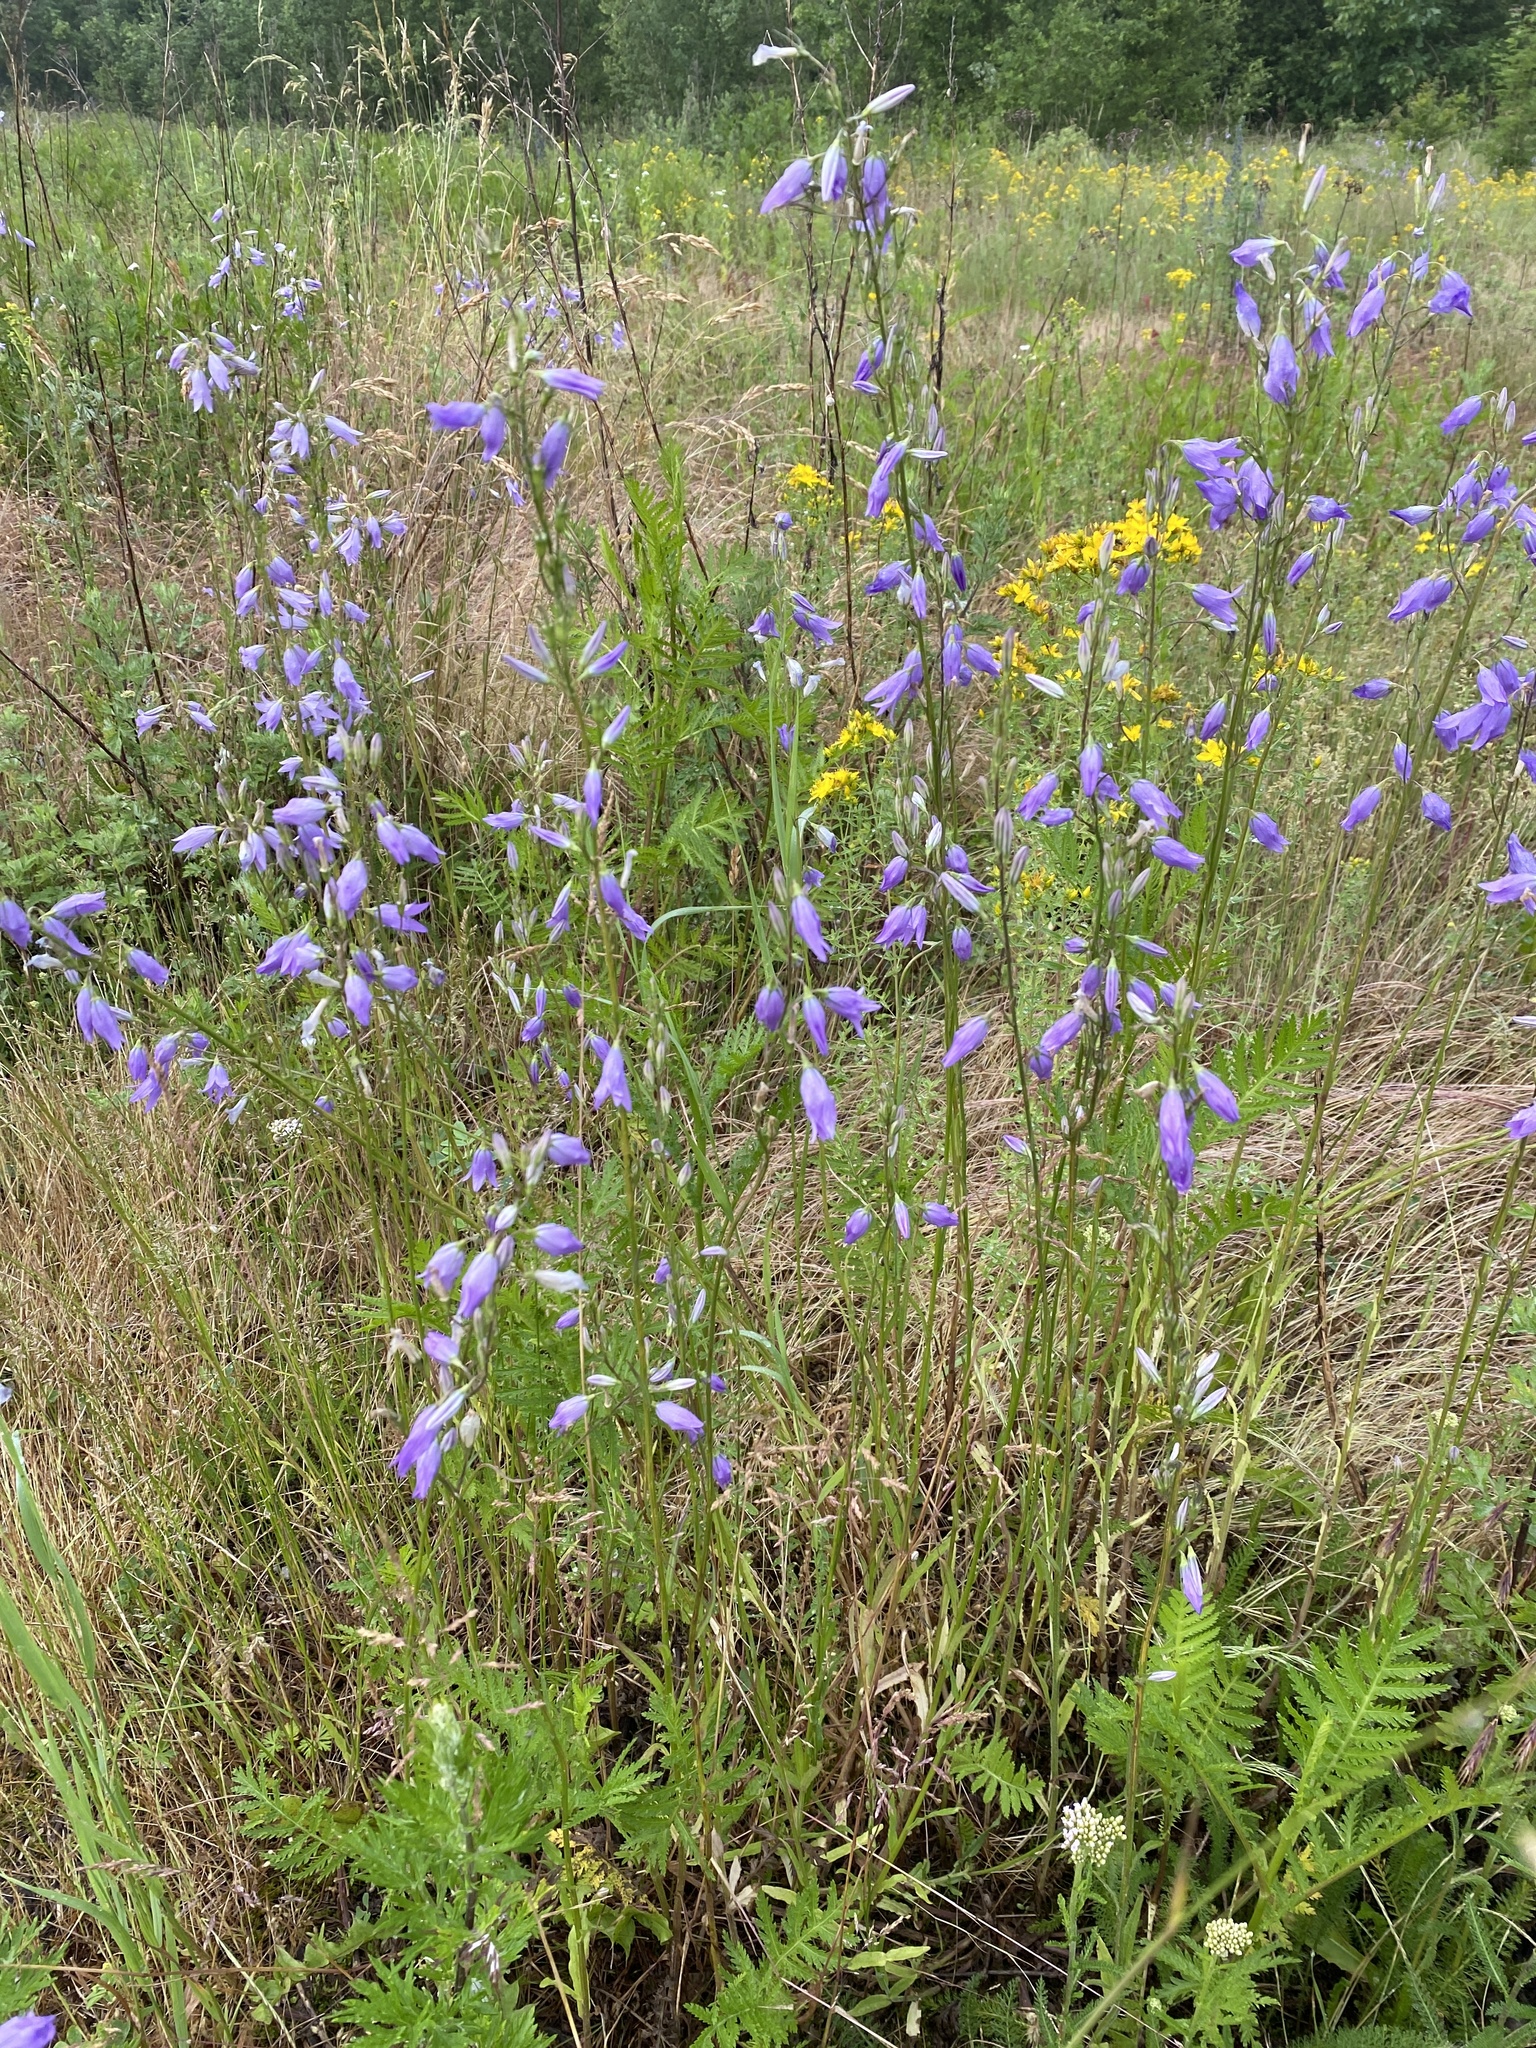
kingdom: Plantae
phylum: Tracheophyta
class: Magnoliopsida
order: Asterales
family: Campanulaceae
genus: Campanula
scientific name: Campanula rapunculus
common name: Rampion bellflower
